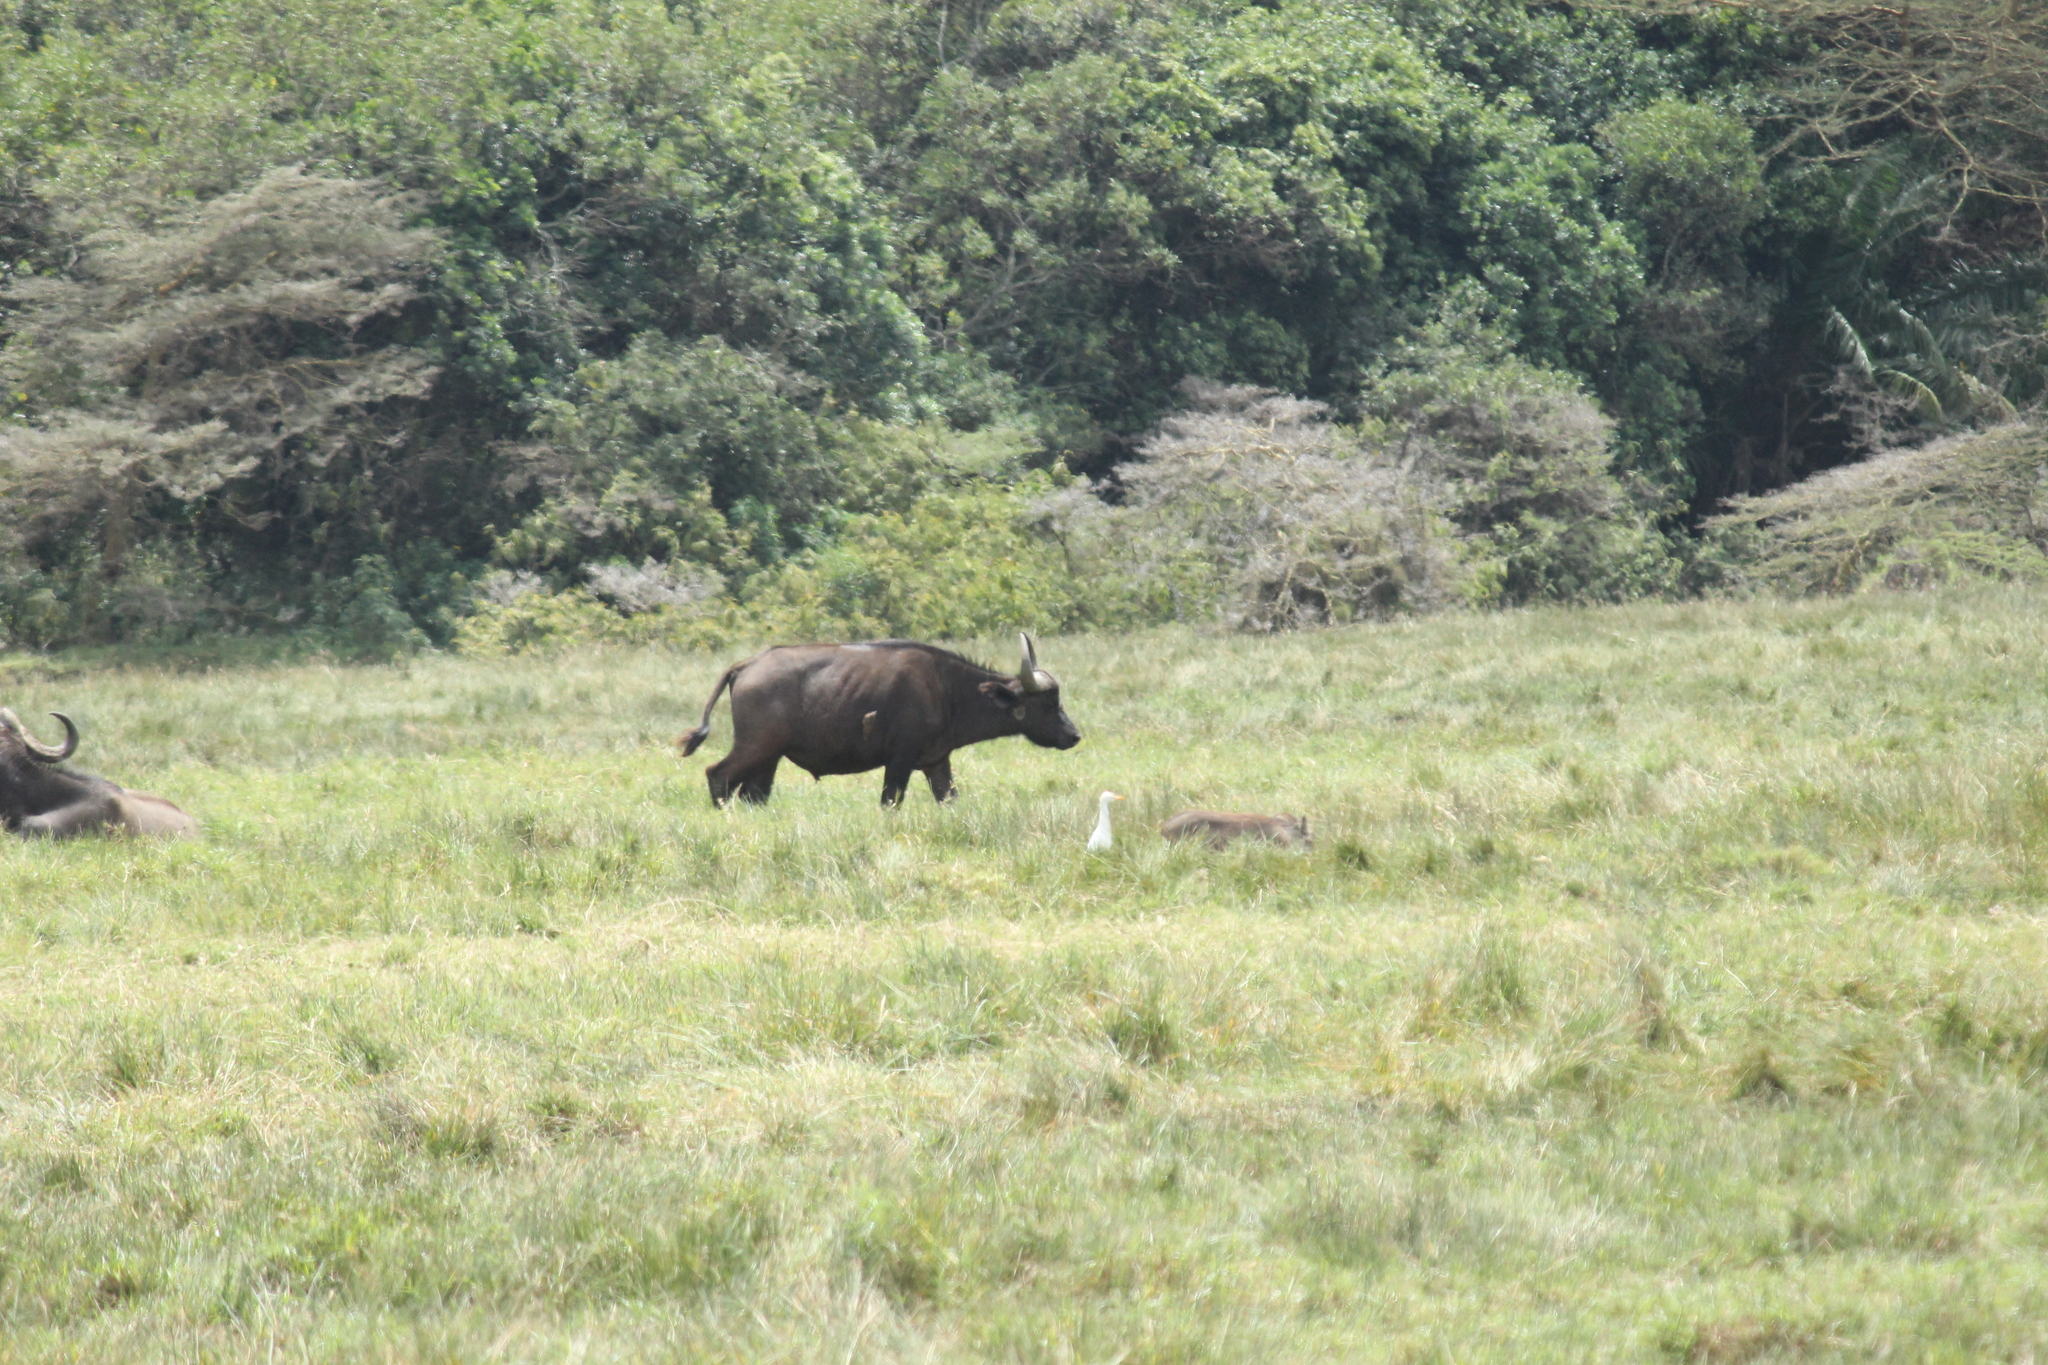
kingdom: Animalia
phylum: Chordata
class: Mammalia
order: Artiodactyla
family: Bovidae
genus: Syncerus
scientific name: Syncerus caffer
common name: African buffalo
